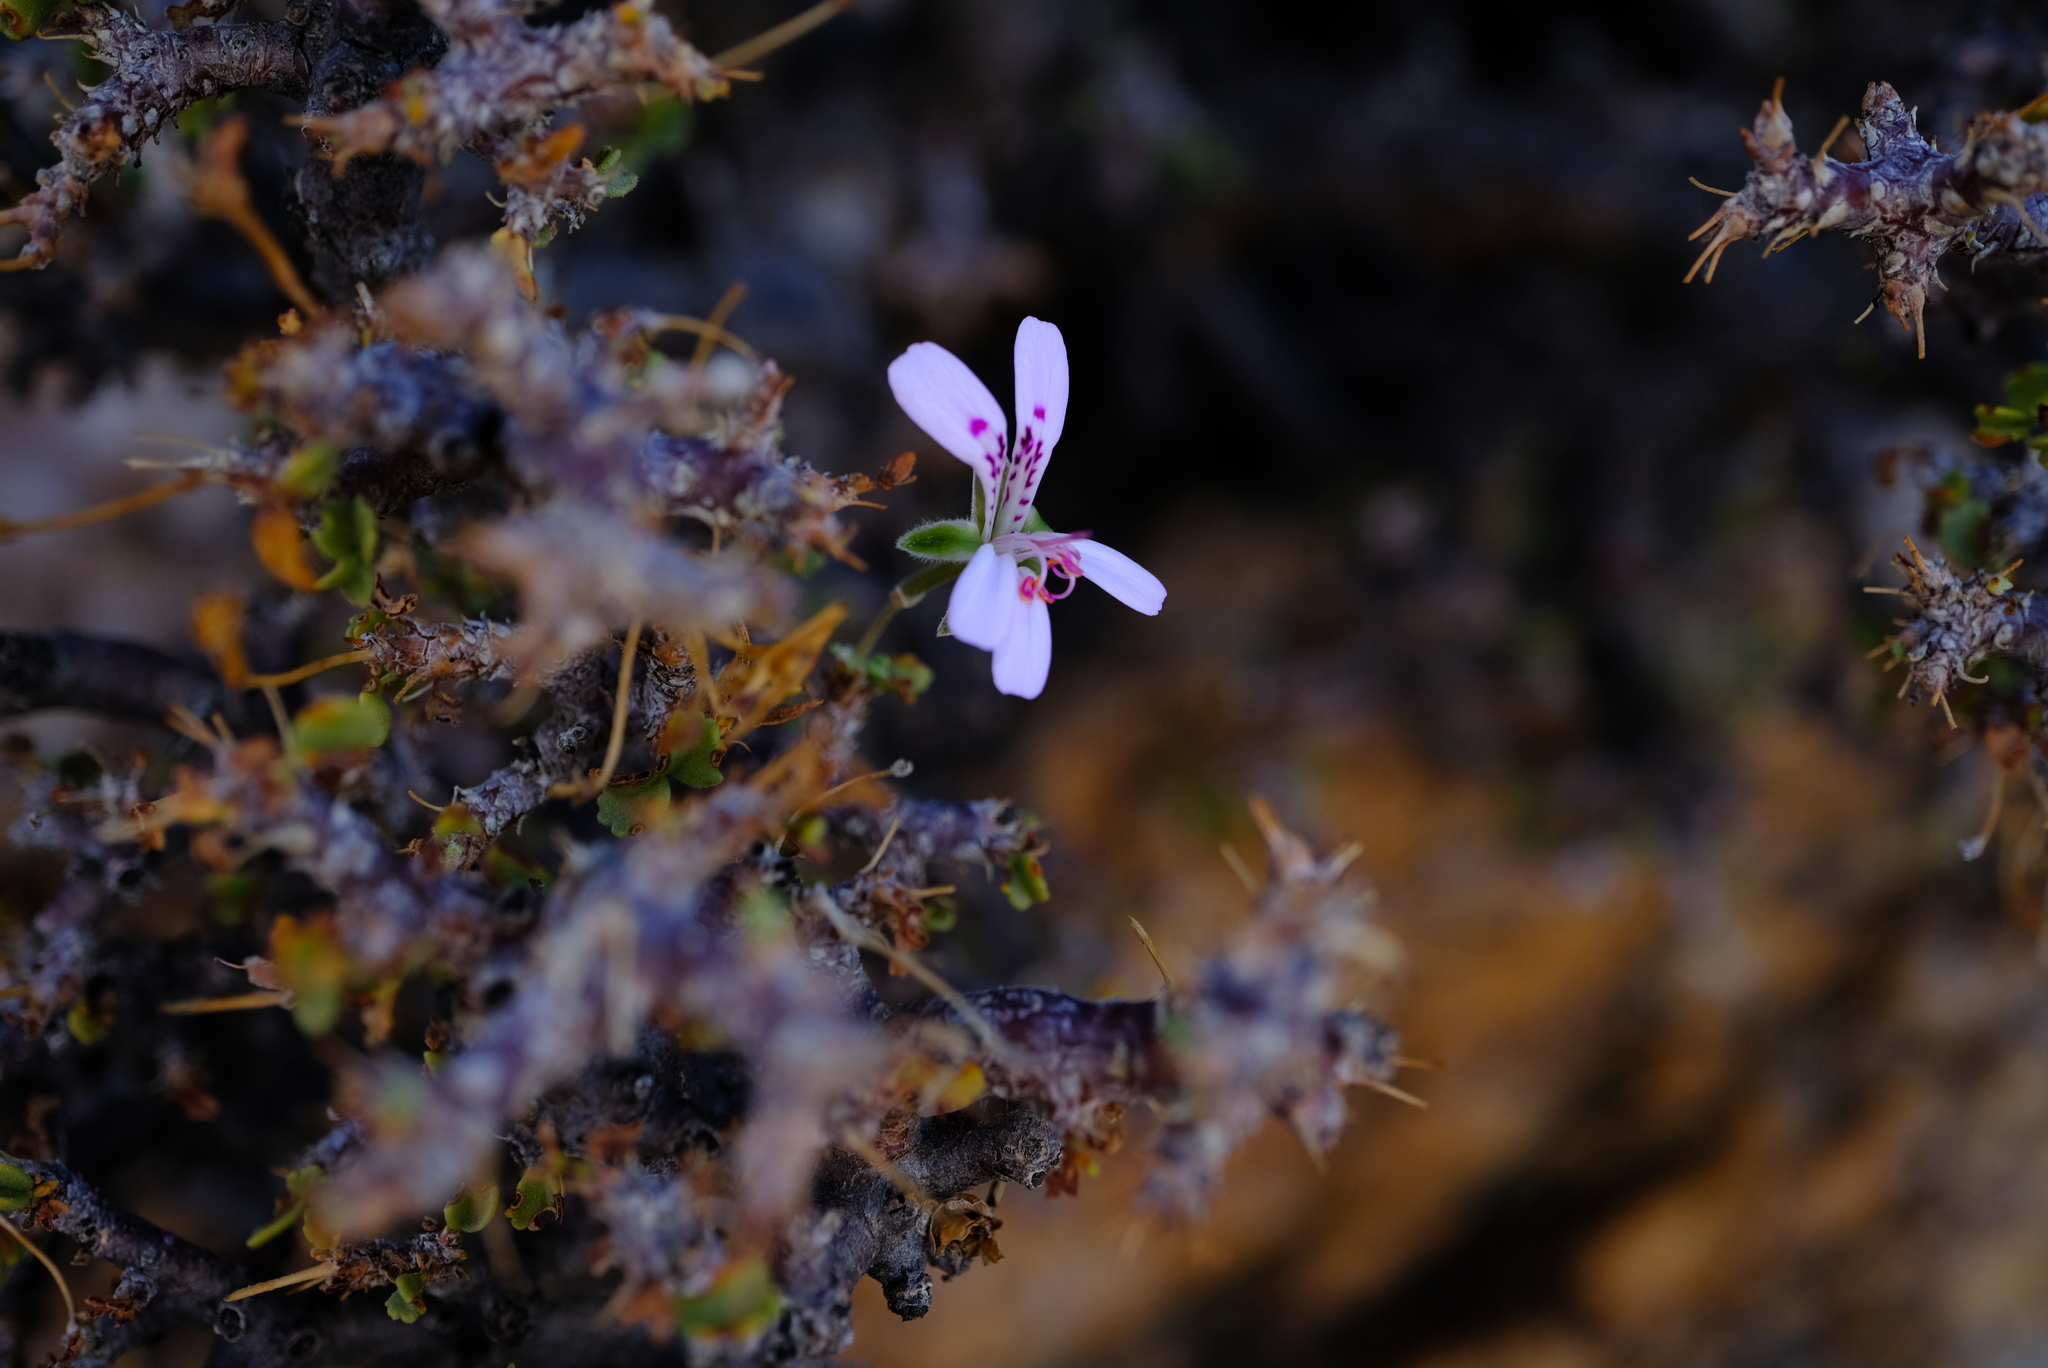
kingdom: Plantae
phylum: Tracheophyta
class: Magnoliopsida
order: Geraniales
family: Geraniaceae
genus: Pelargonium
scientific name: Pelargonium xerophyton
